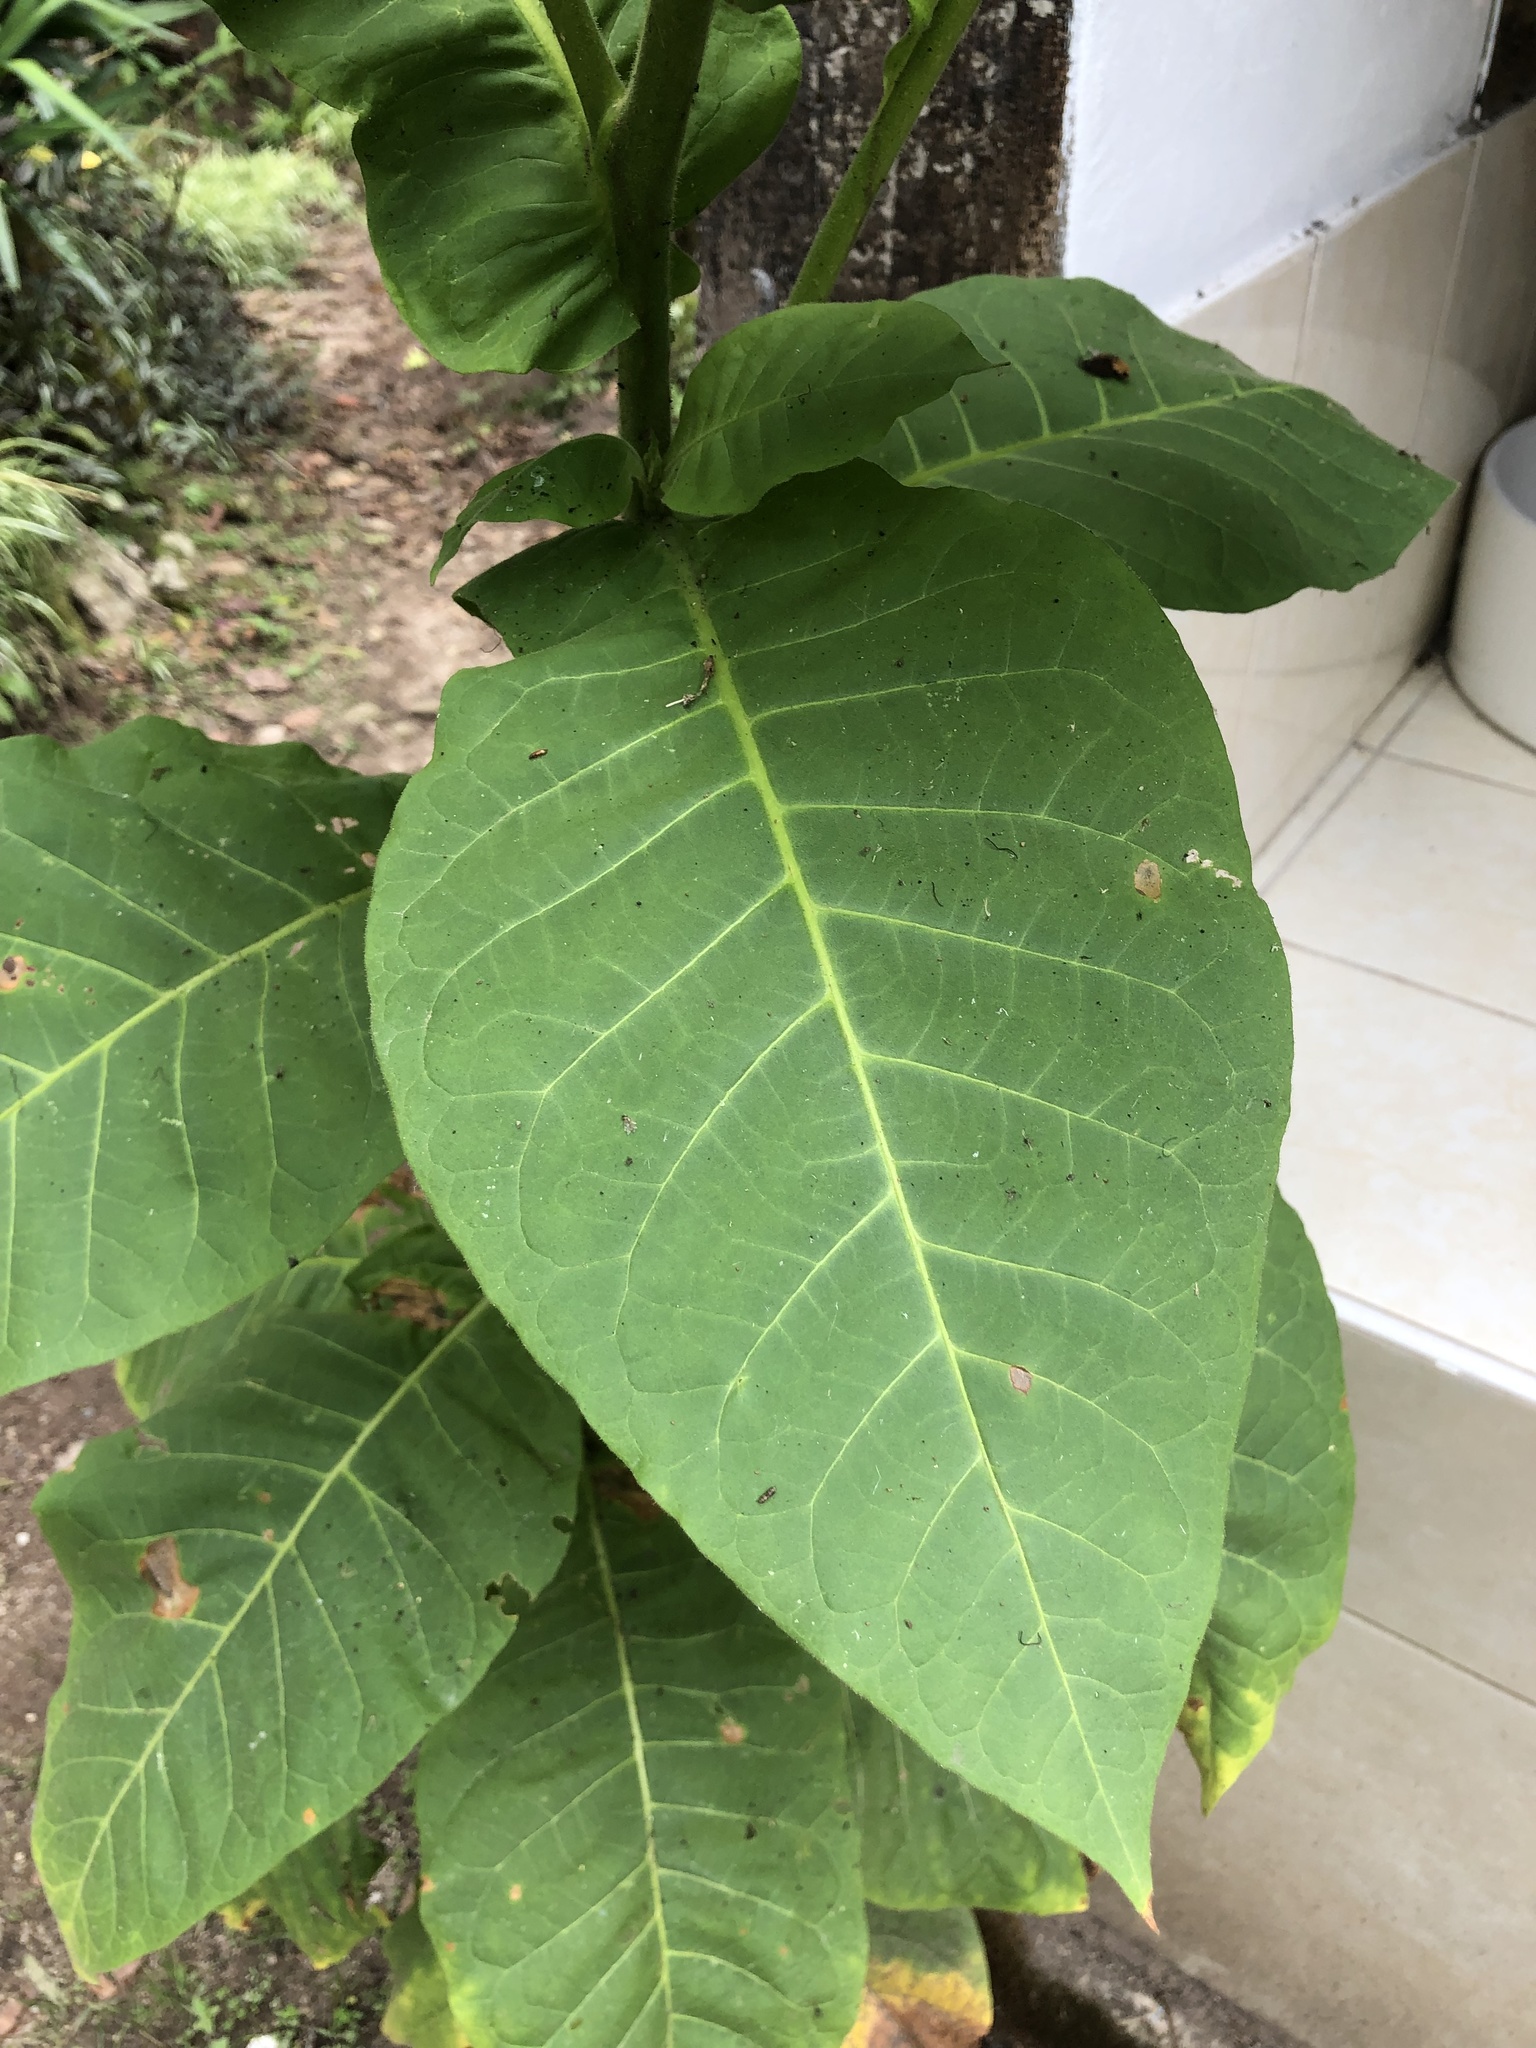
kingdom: Plantae
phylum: Tracheophyta
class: Magnoliopsida
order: Solanales
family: Solanaceae
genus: Nicotiana
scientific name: Nicotiana tabacum
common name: Tobacco
